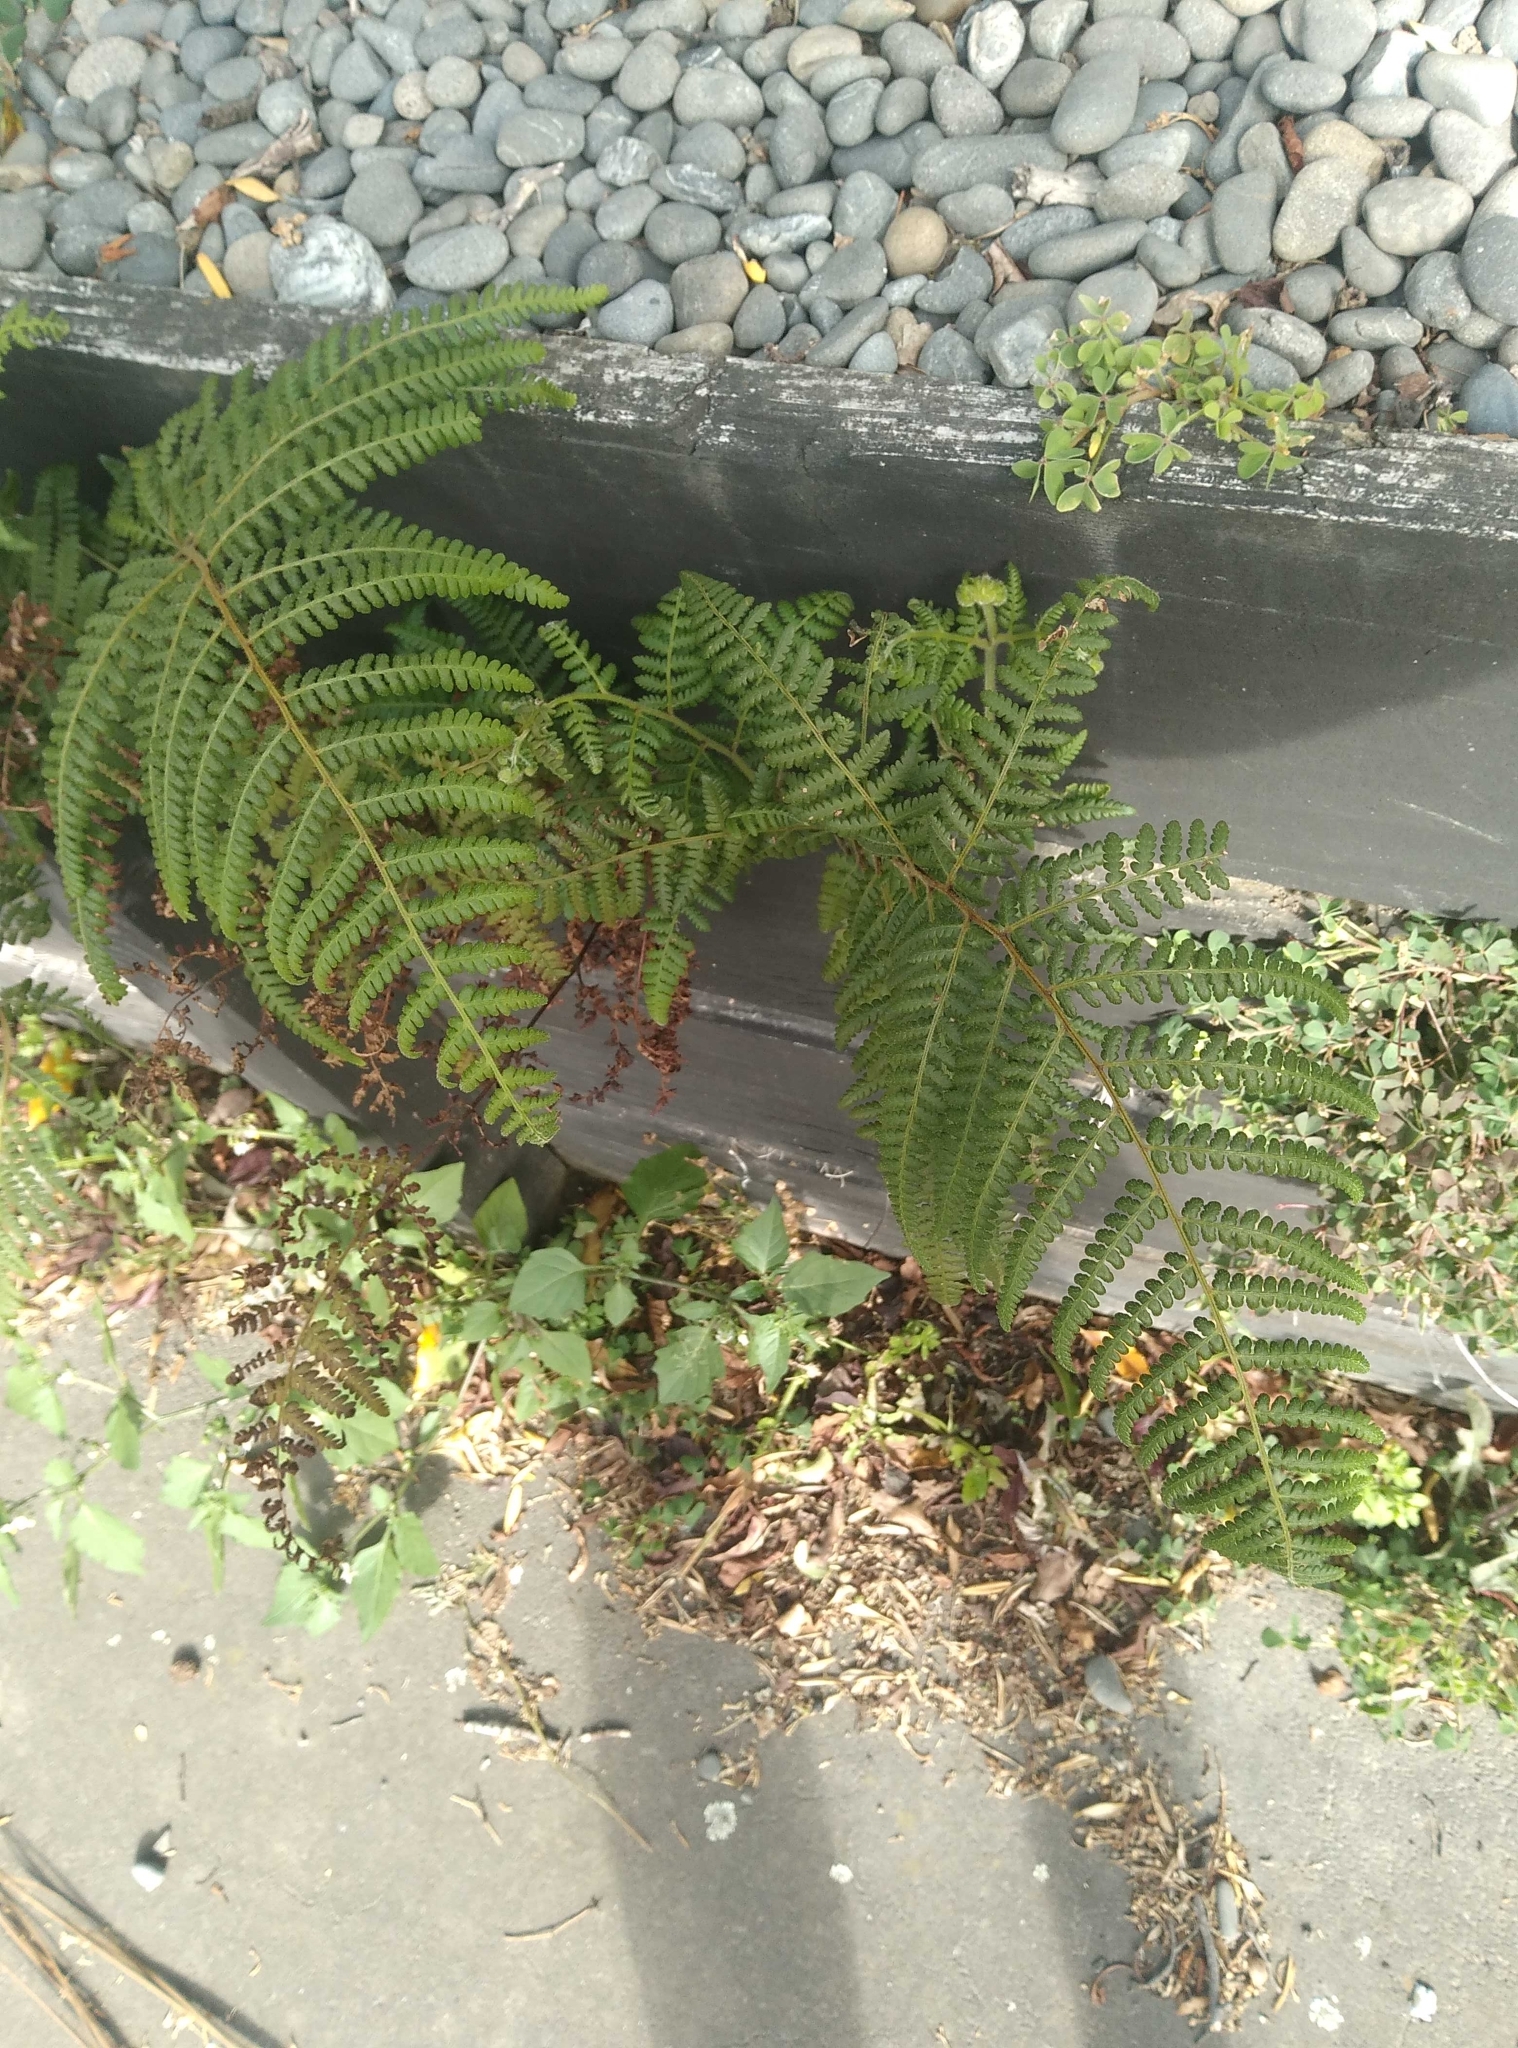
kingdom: Plantae
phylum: Tracheophyta
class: Polypodiopsida
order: Polypodiales
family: Dennstaedtiaceae
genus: Hypolepis
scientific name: Hypolepis ambigua
